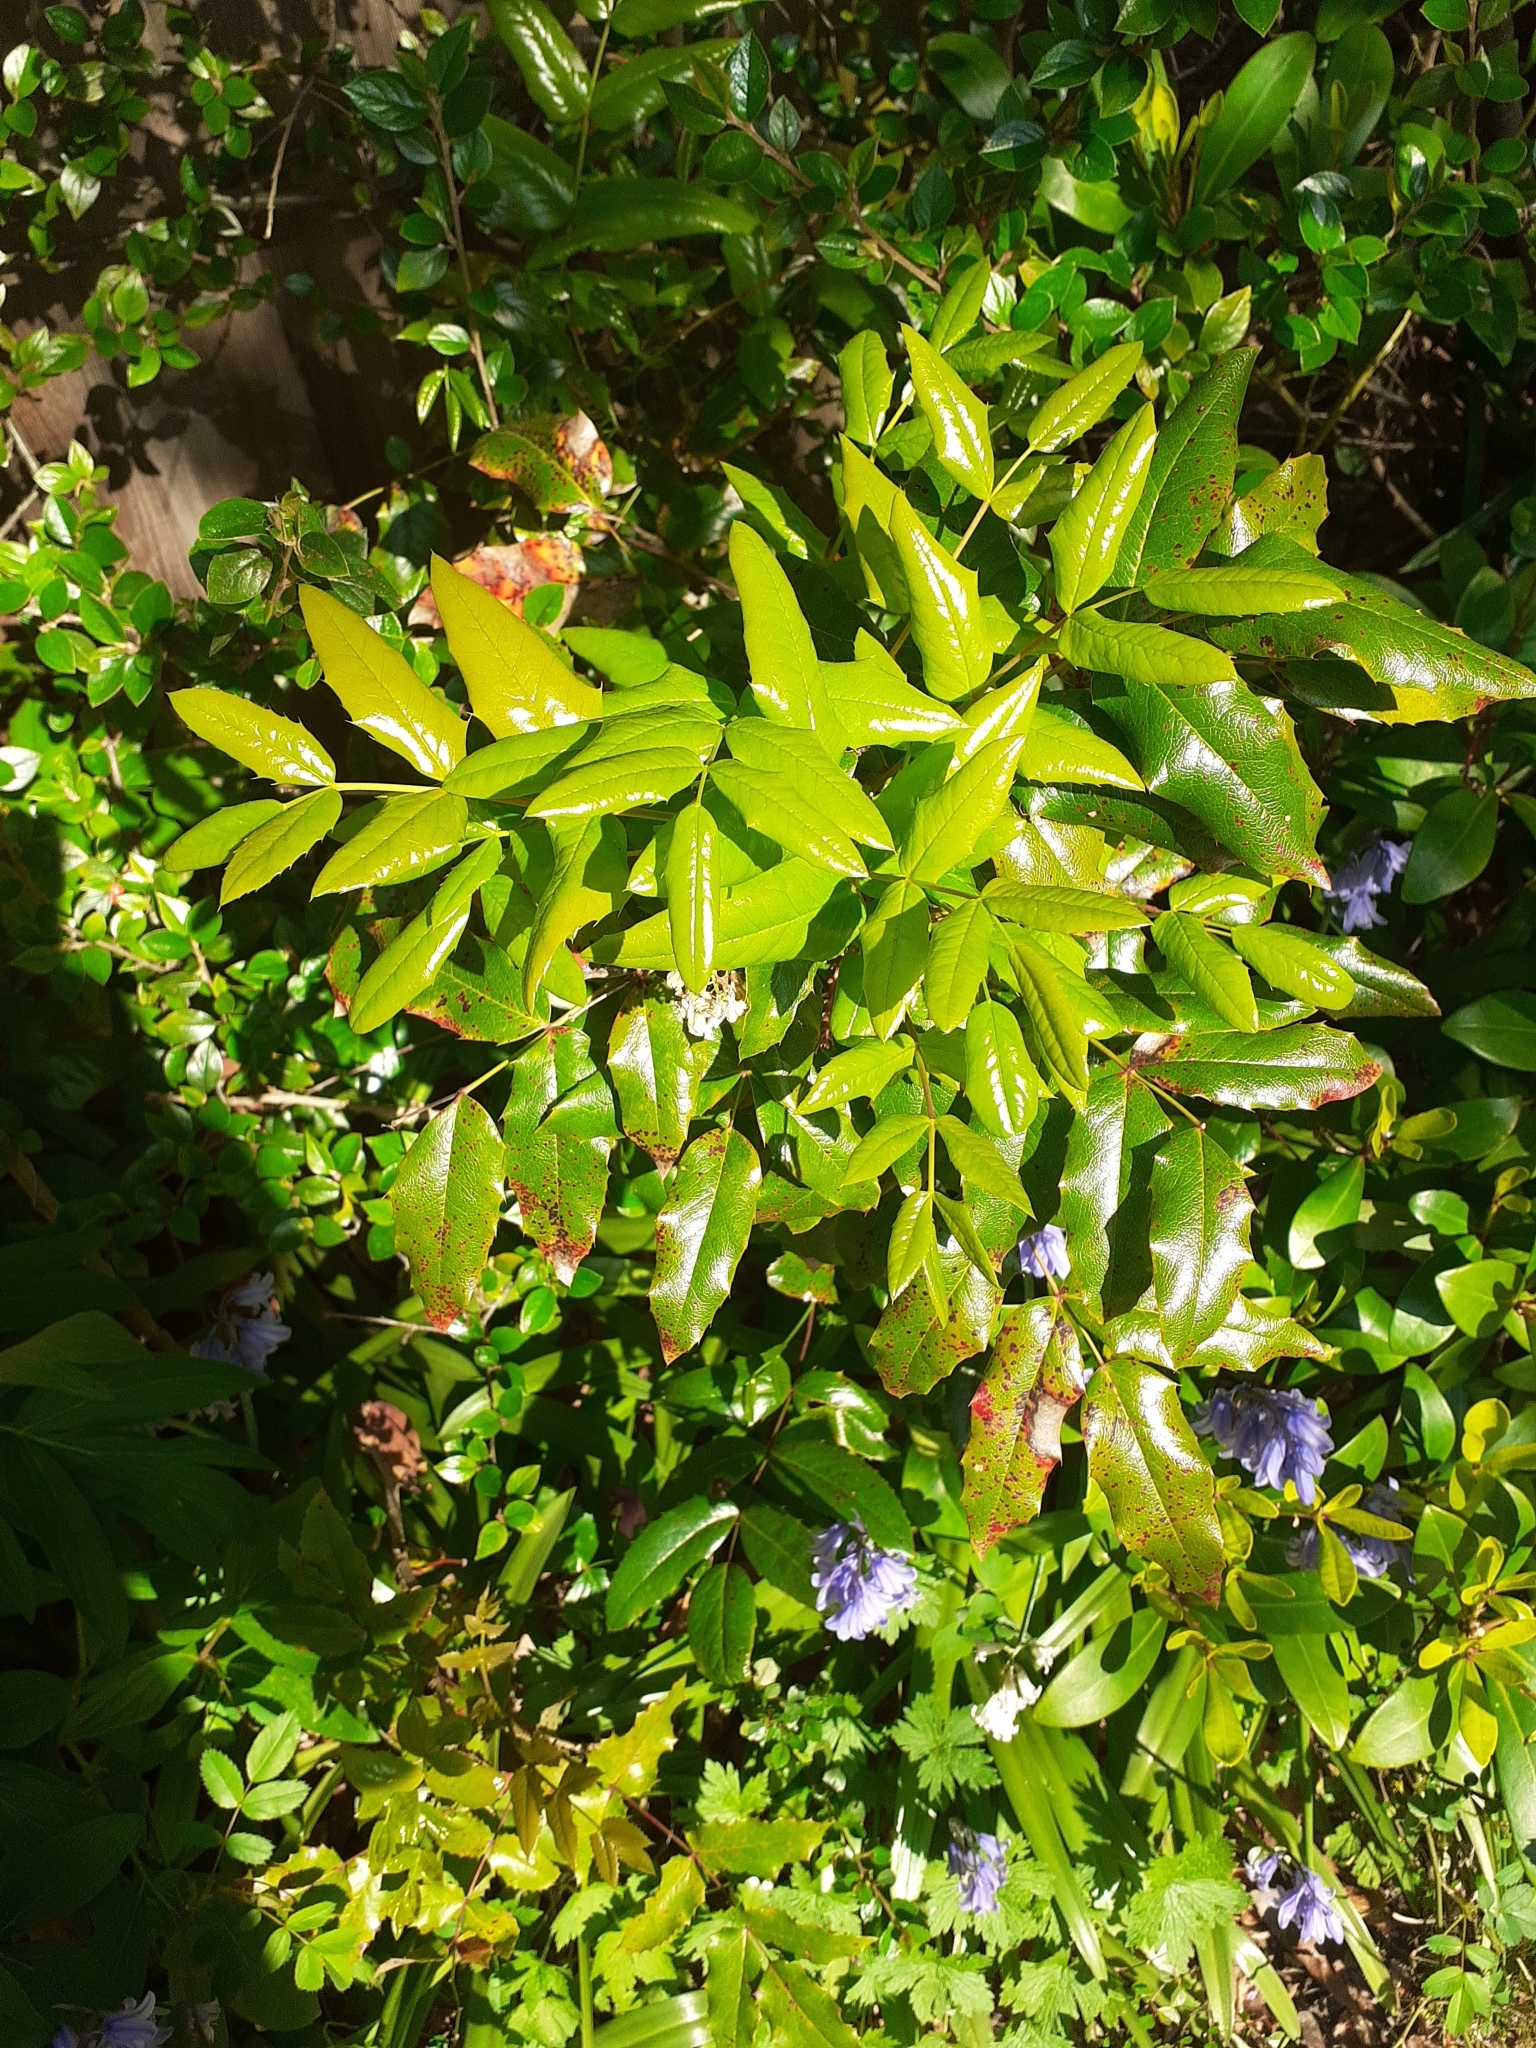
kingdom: Plantae
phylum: Tracheophyta
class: Magnoliopsida
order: Ranunculales
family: Berberidaceae
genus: Mahonia
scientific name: Mahonia aquifolium
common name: Oregon-grape
